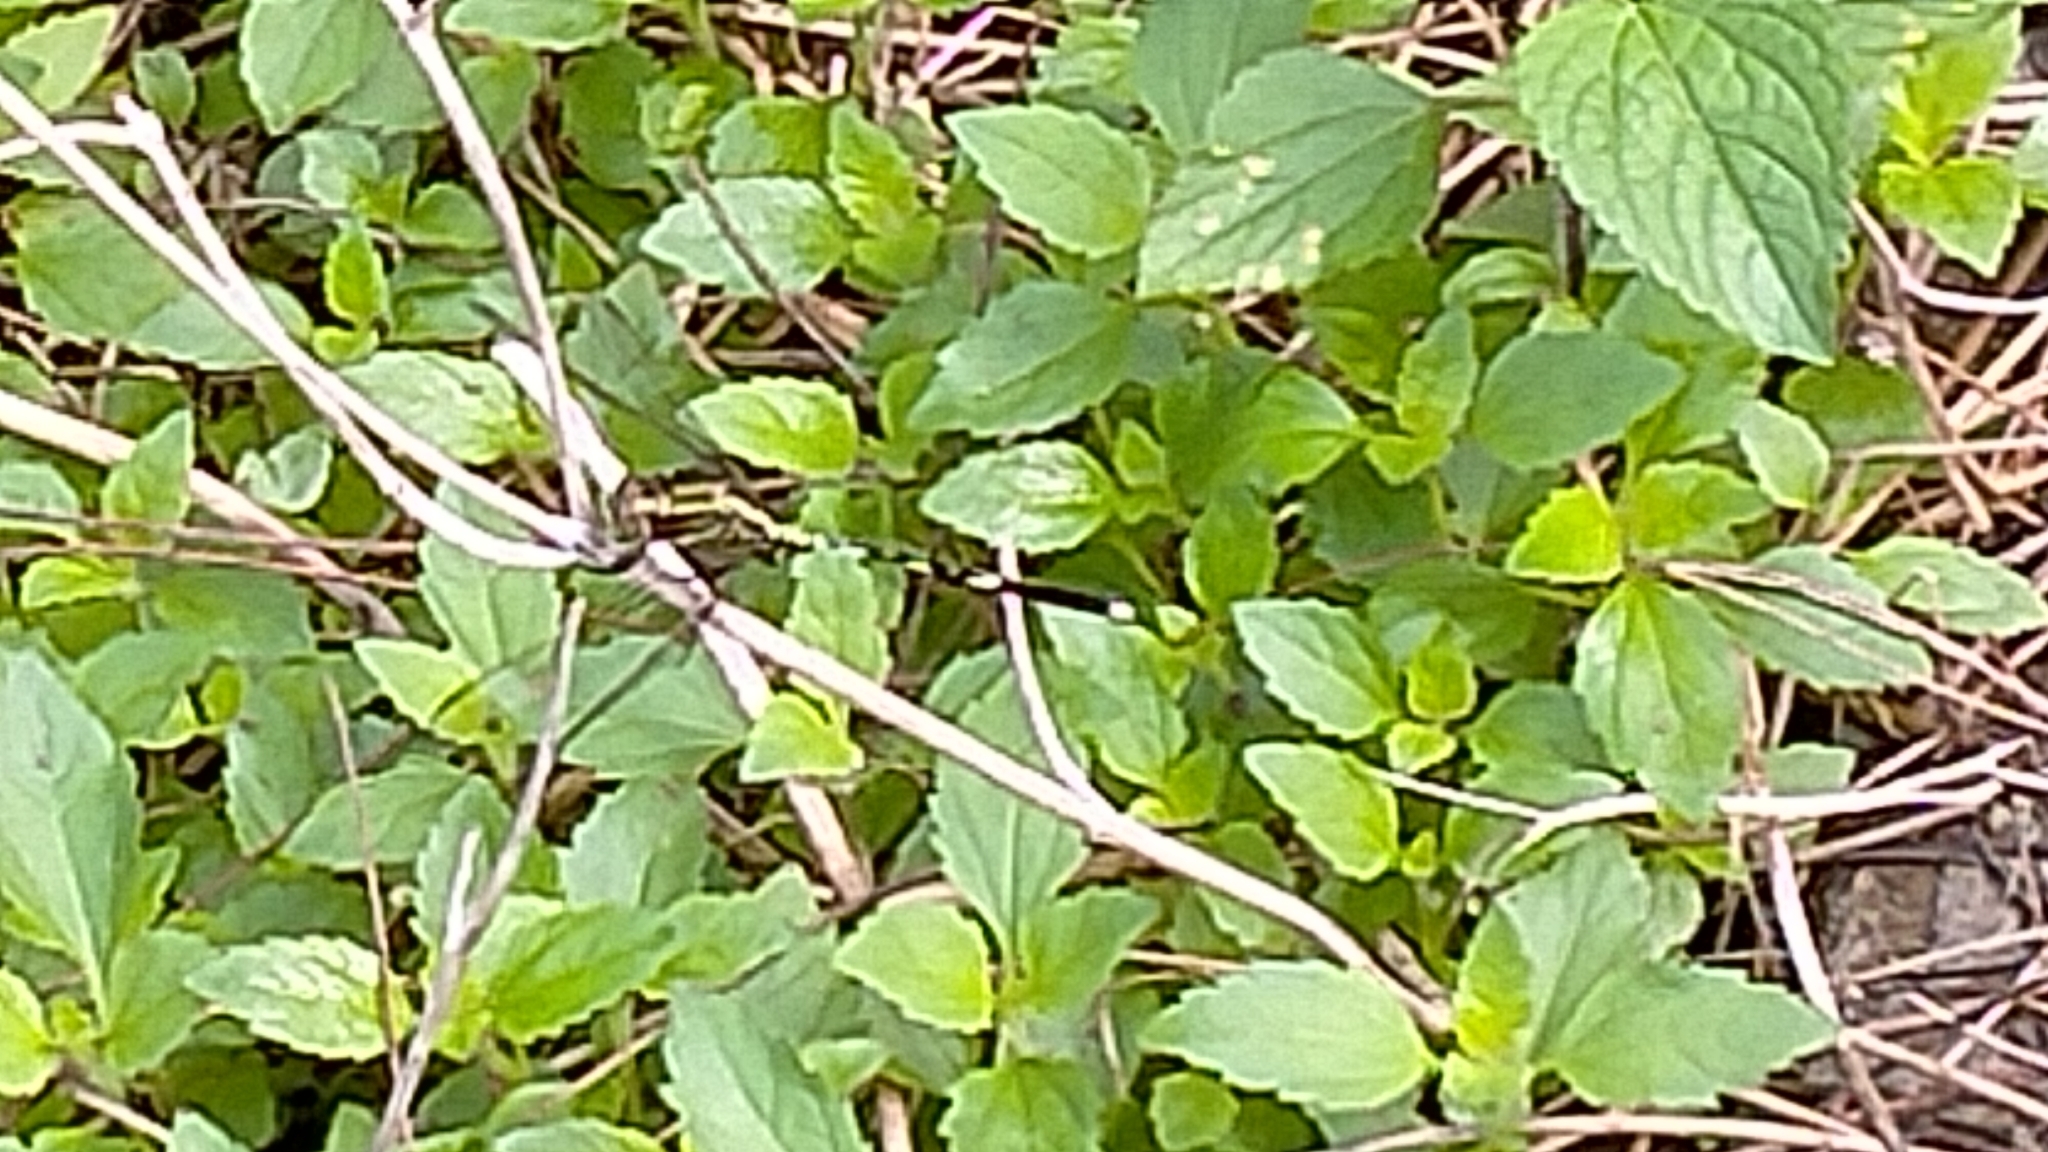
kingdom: Animalia
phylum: Arthropoda
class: Insecta
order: Odonata
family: Libellulidae
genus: Orthetrum
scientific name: Orthetrum sabina
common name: Slender skimmer
